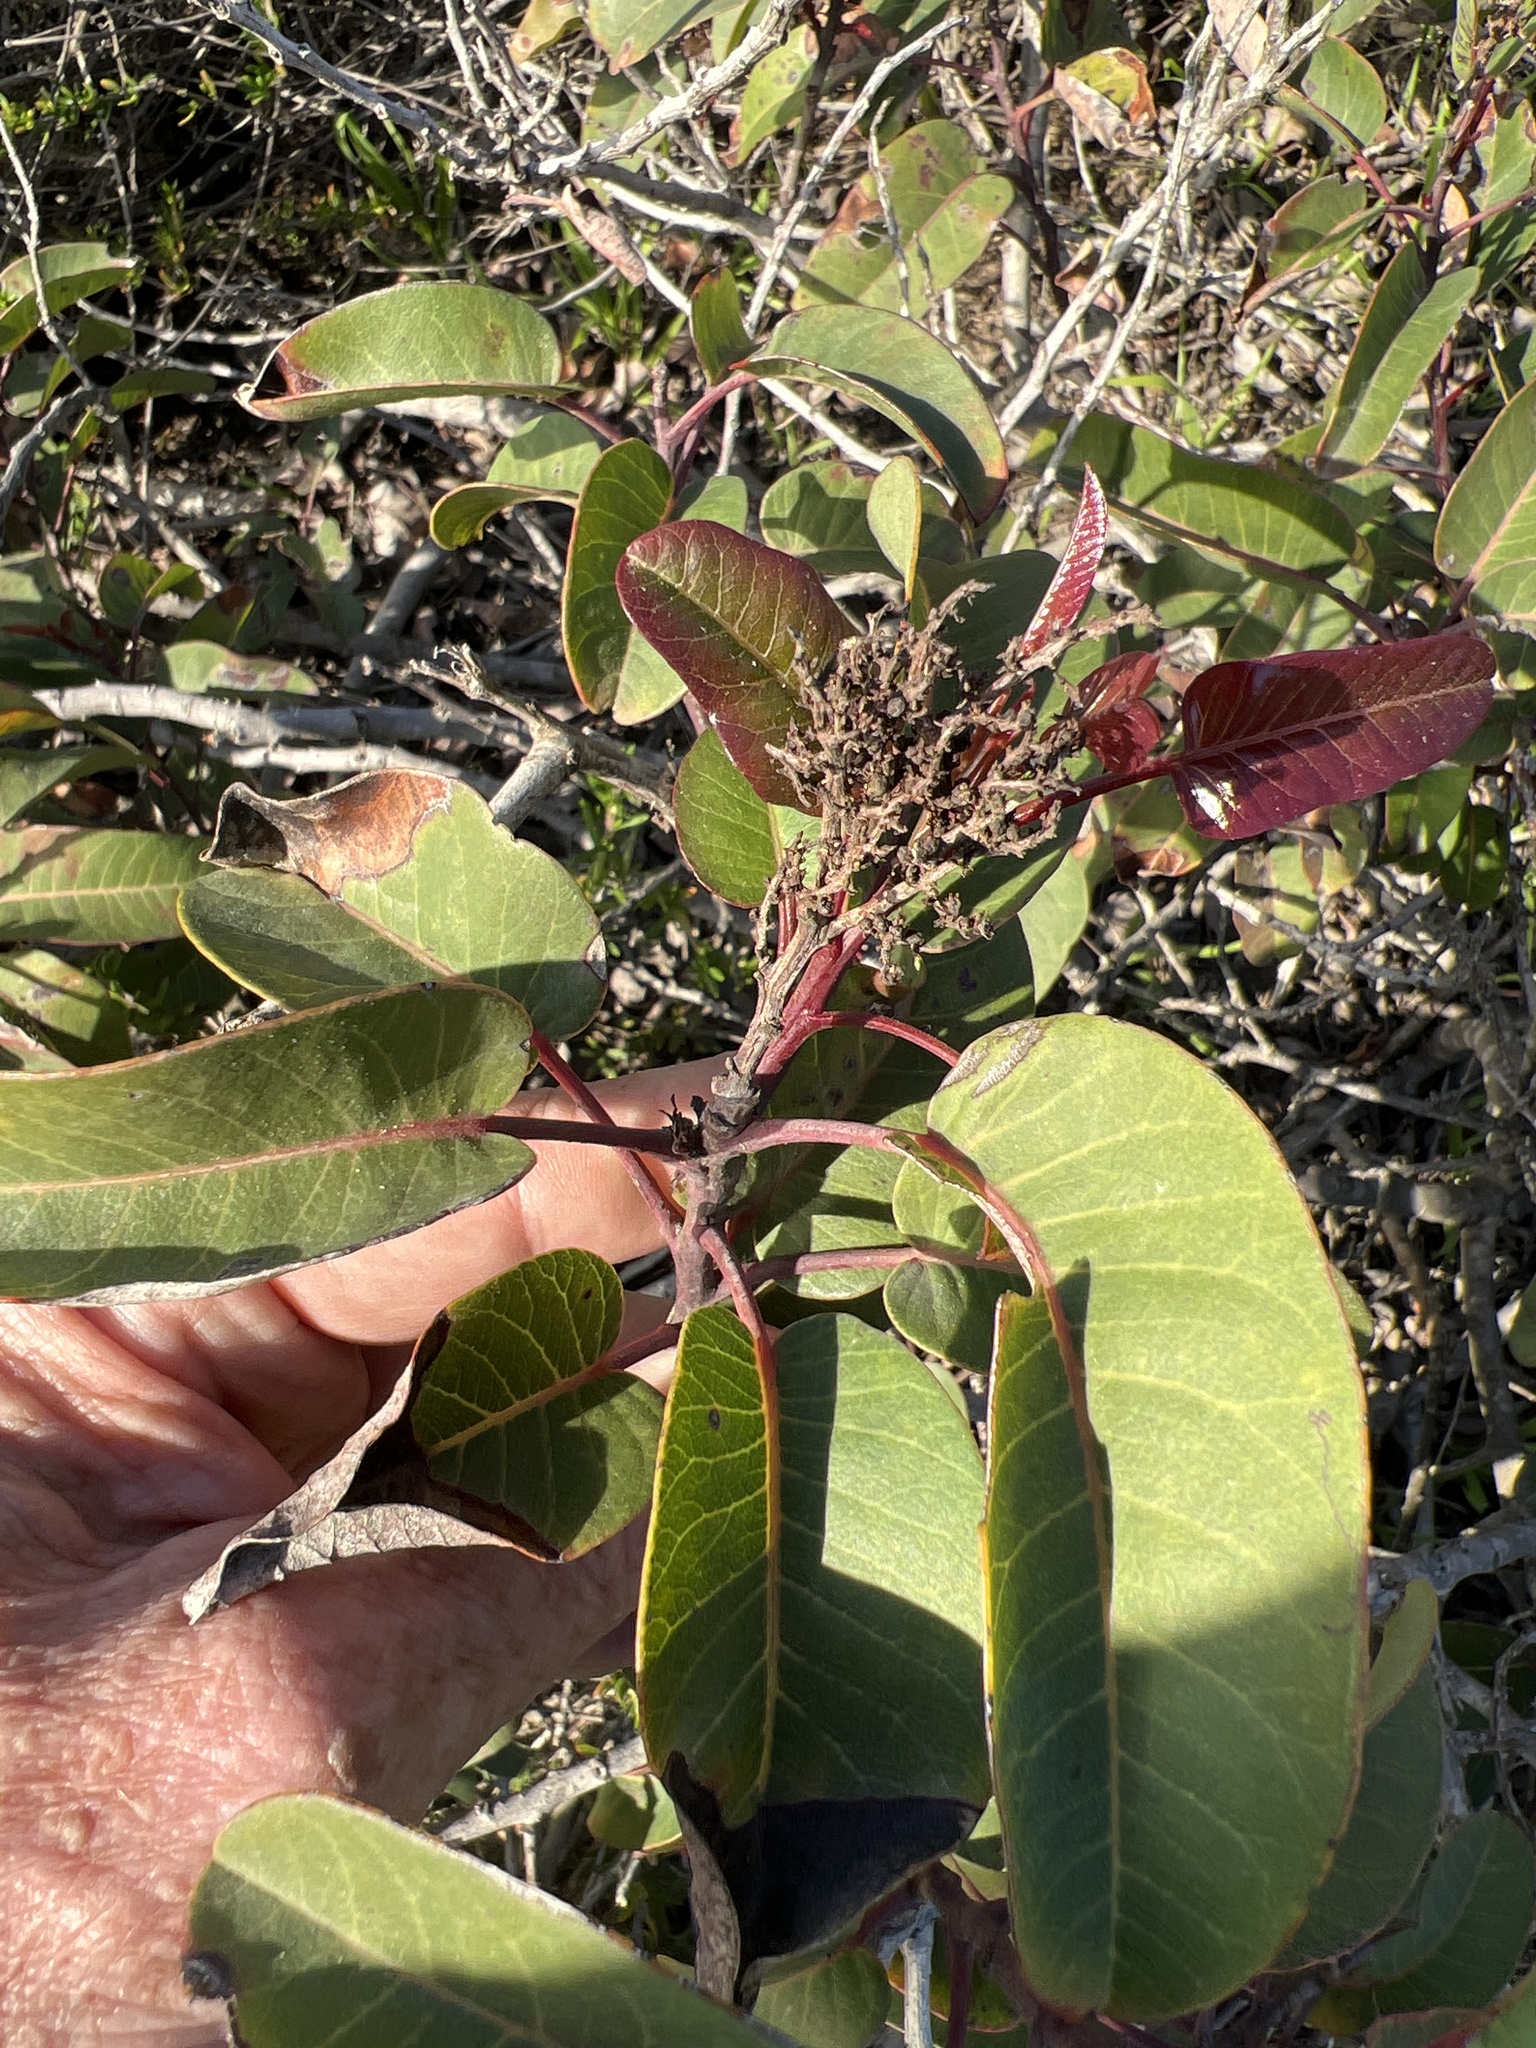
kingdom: Plantae
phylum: Tracheophyta
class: Magnoliopsida
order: Sapindales
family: Anacardiaceae
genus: Malosma
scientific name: Malosma laurina
